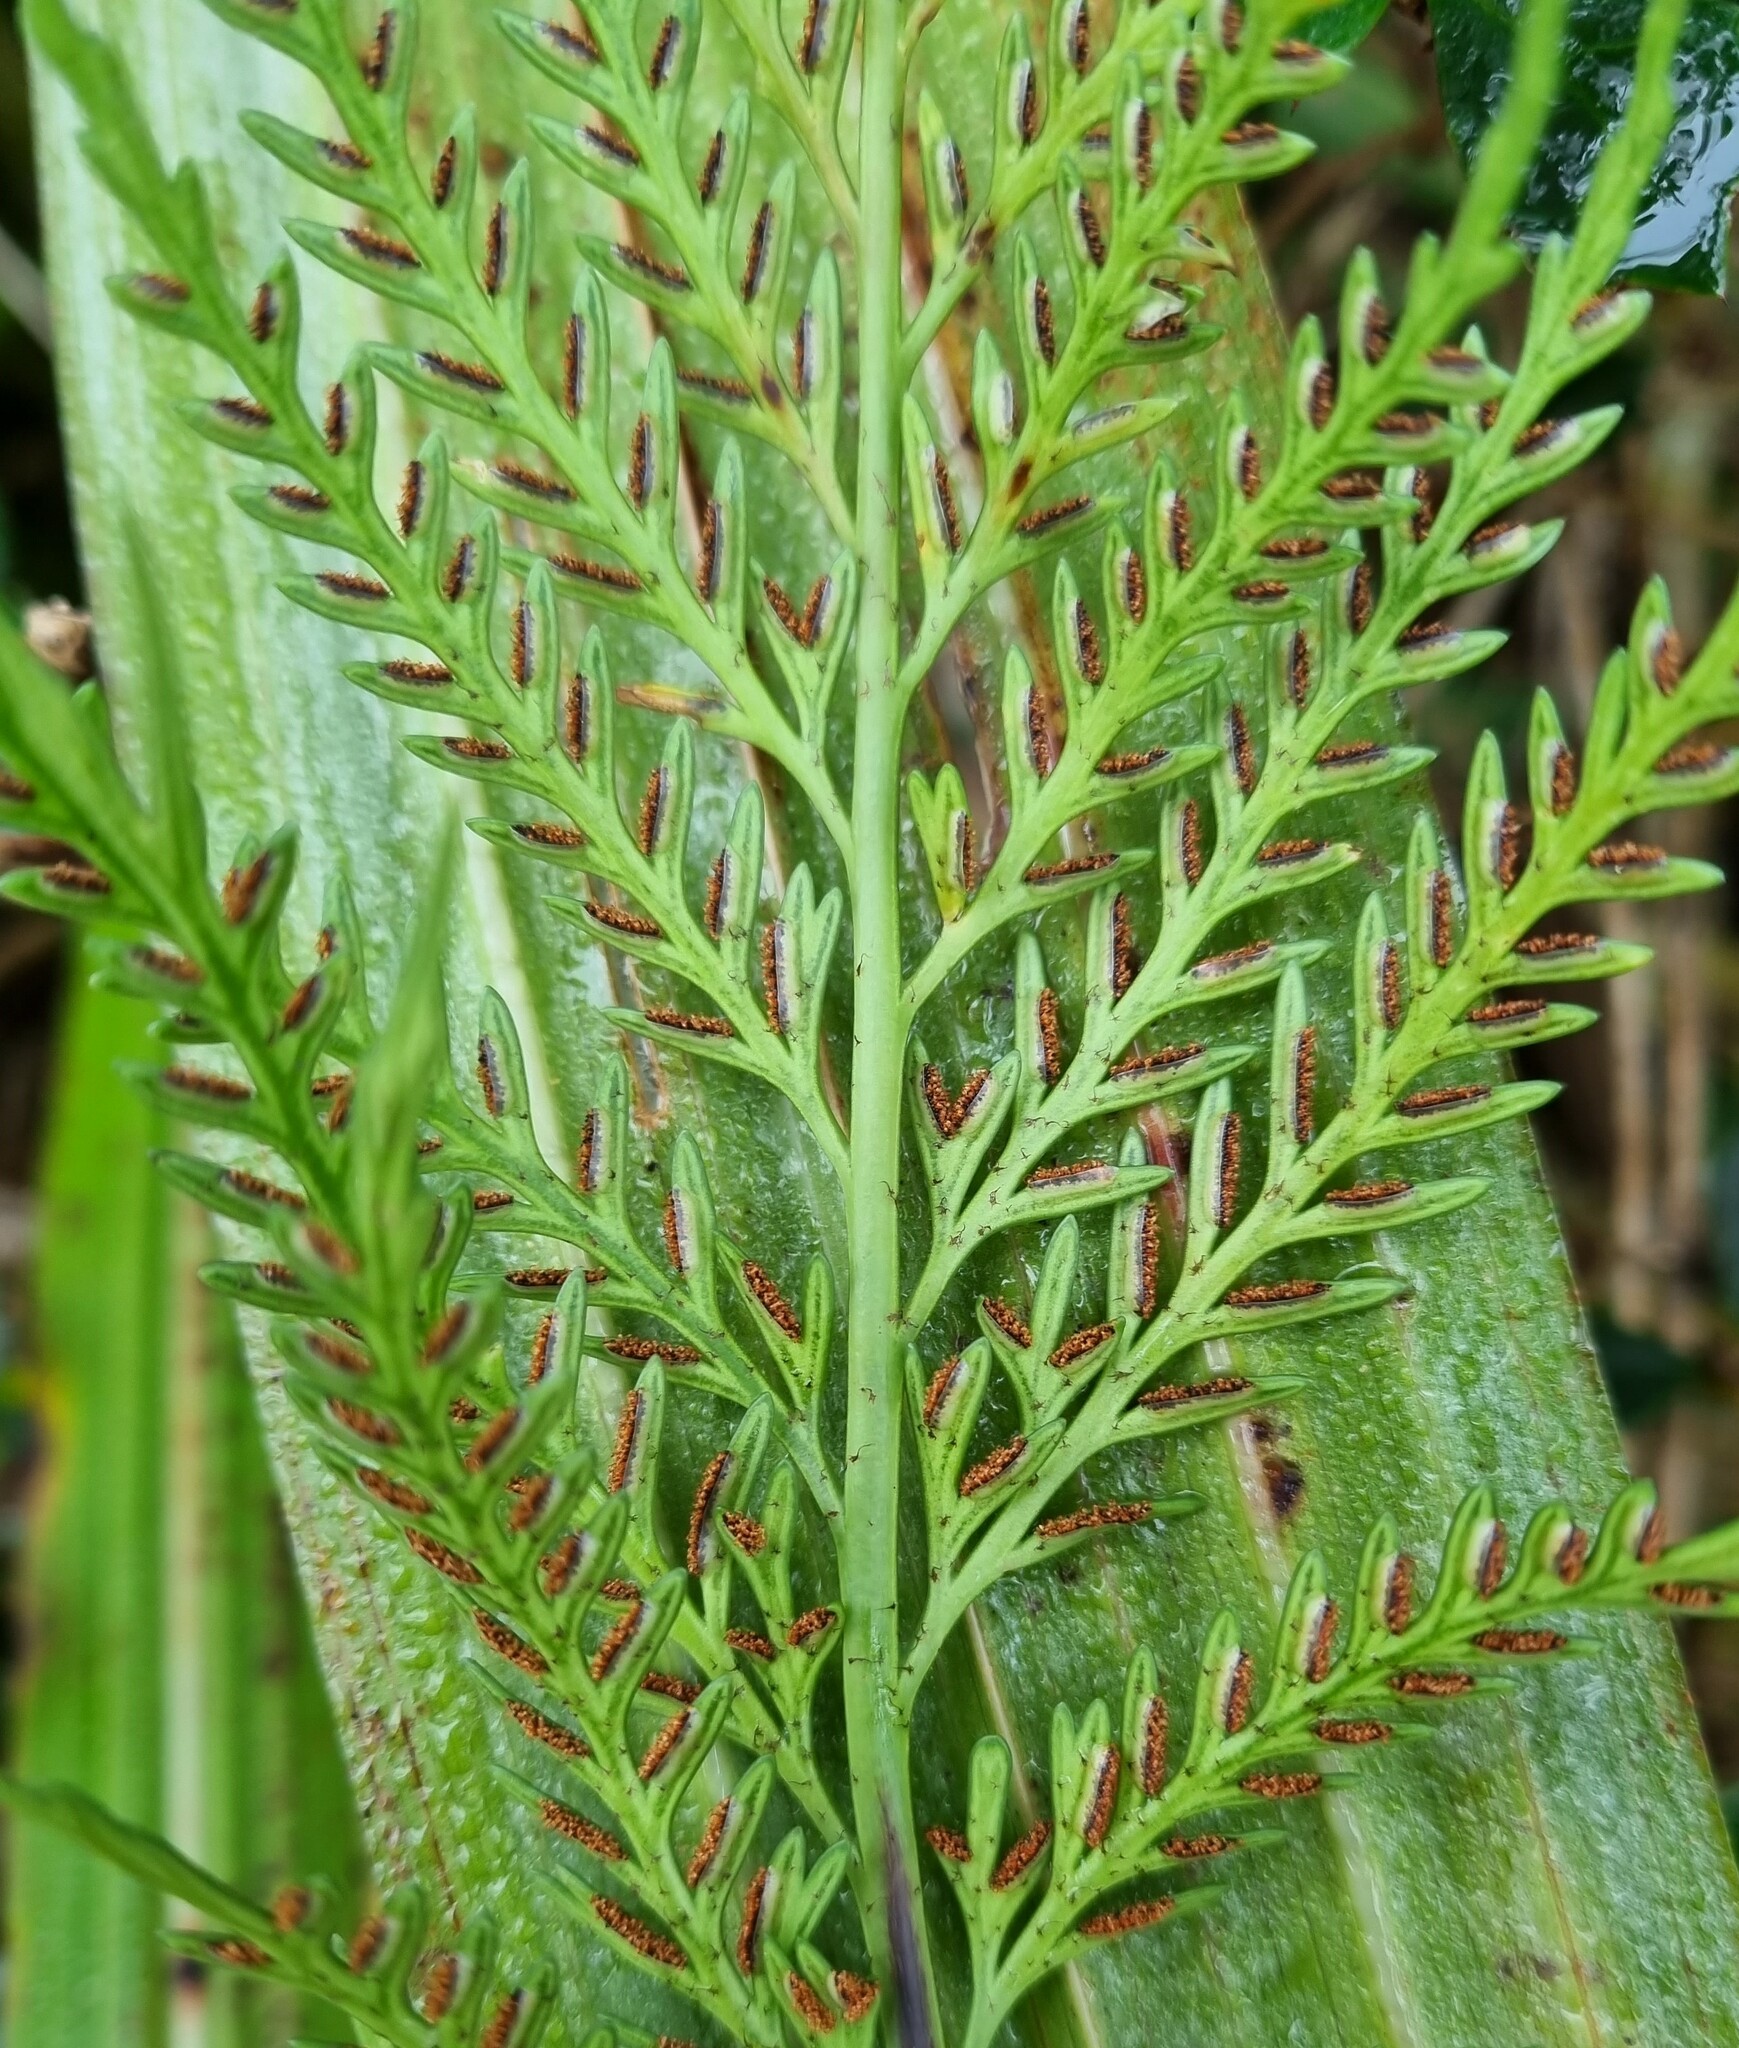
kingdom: Plantae
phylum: Tracheophyta
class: Polypodiopsida
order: Polypodiales
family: Aspleniaceae
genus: Asplenium
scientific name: Asplenium flaccidum
